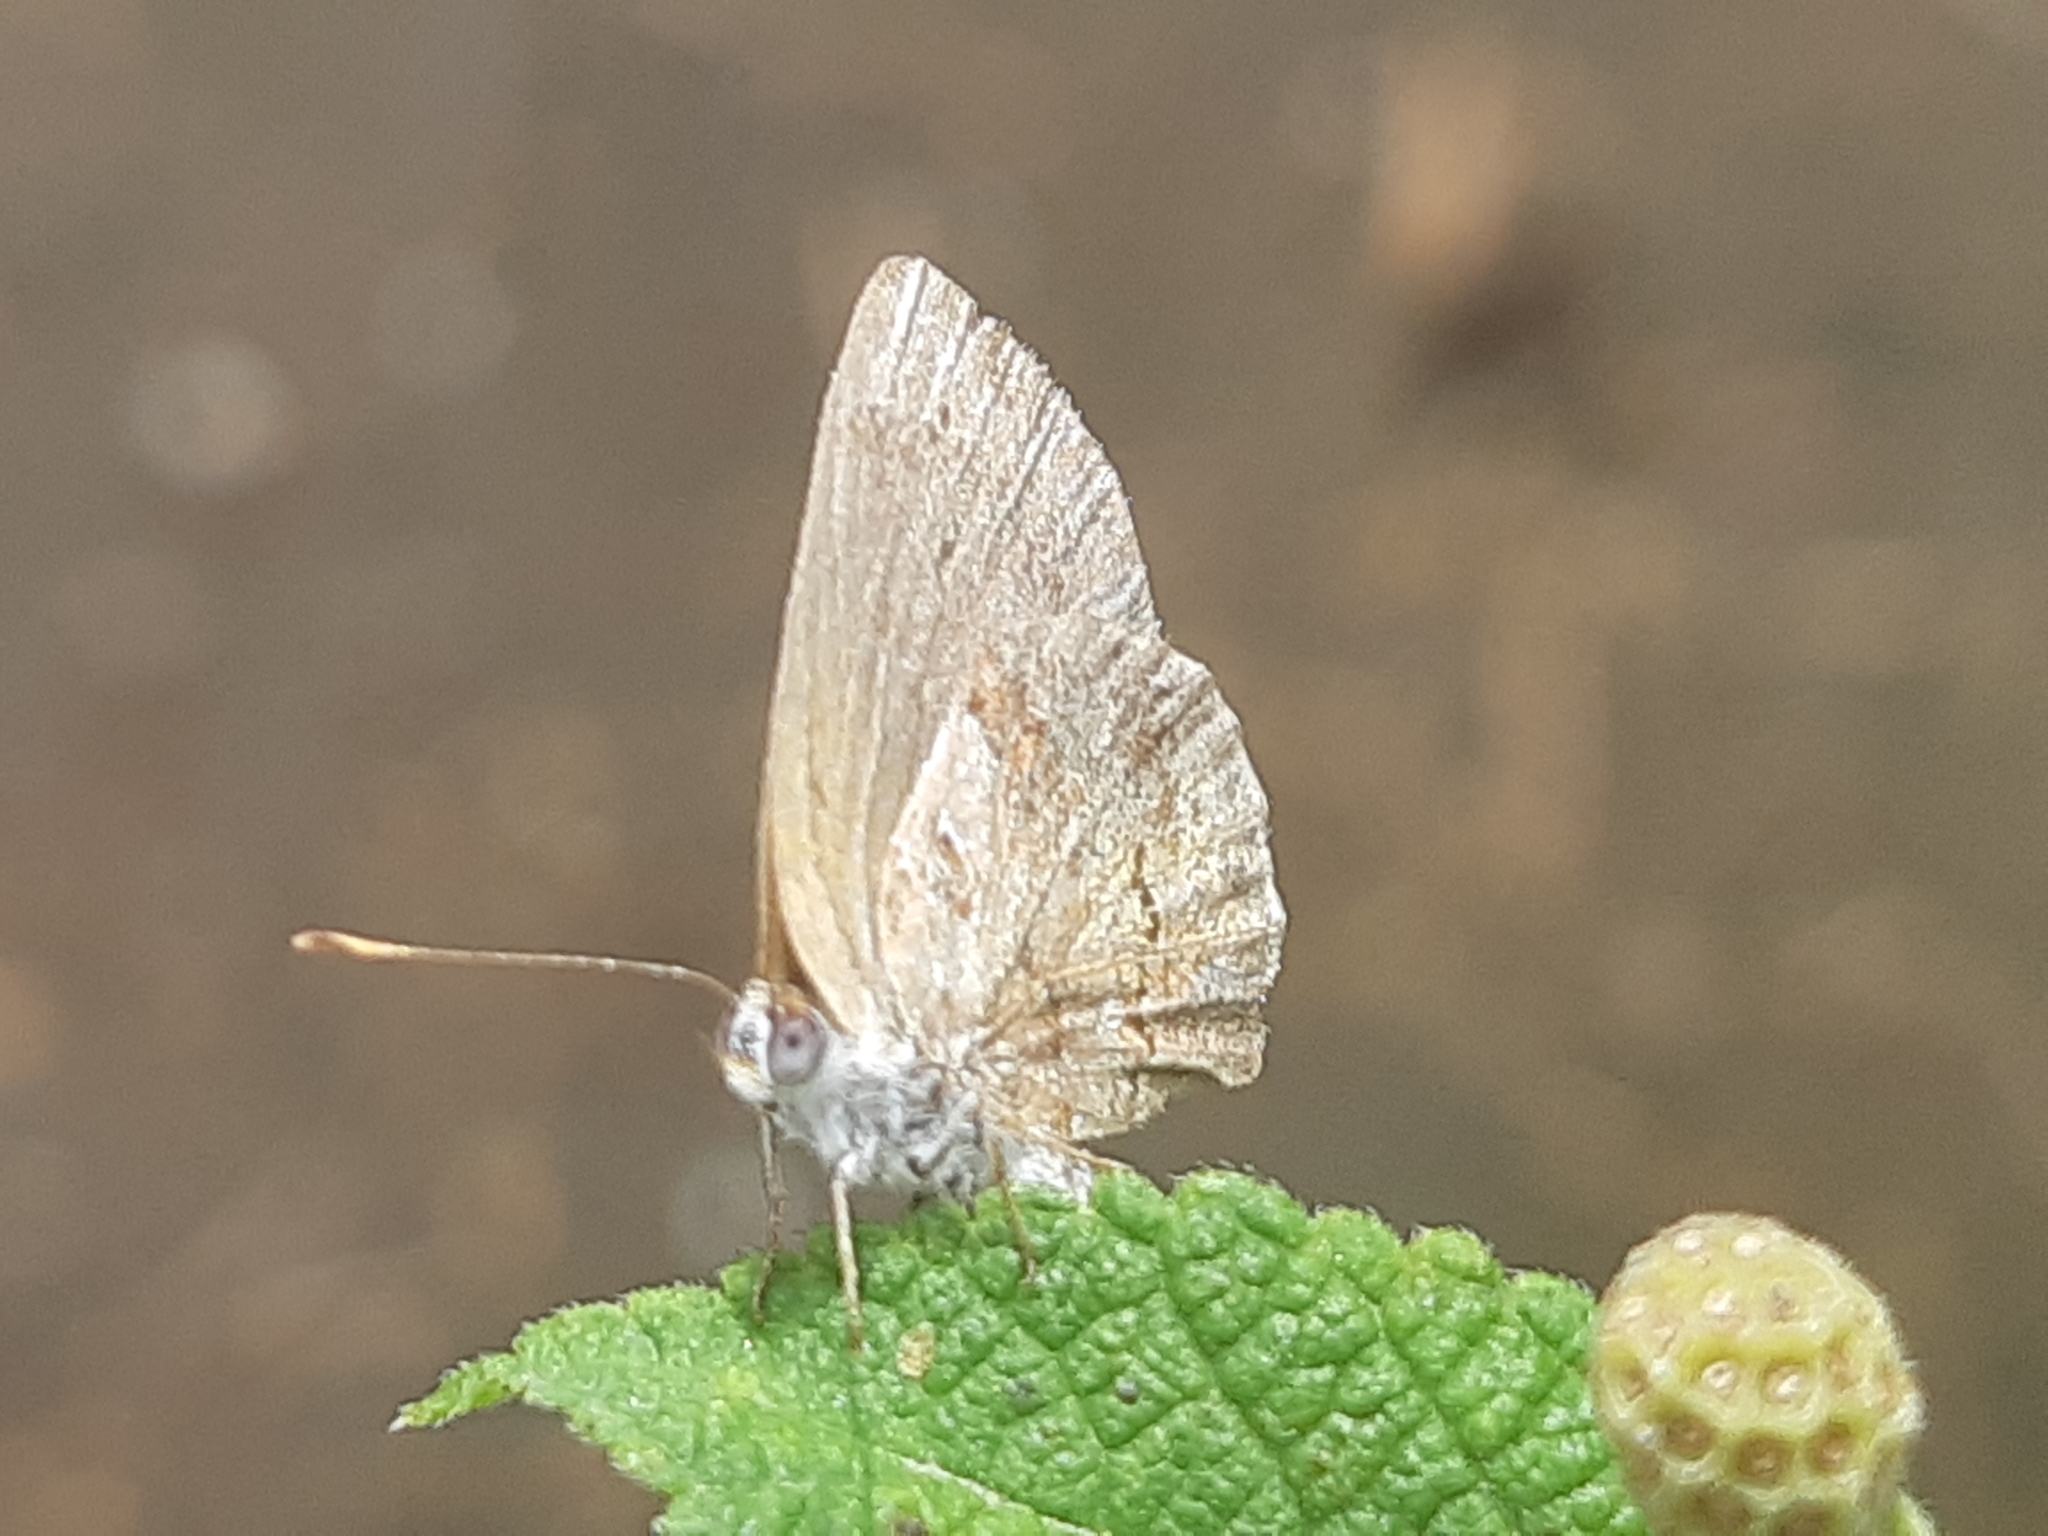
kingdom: Animalia
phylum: Arthropoda
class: Insecta
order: Lepidoptera
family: Lycaenidae
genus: Strymon
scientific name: Strymon bazochii
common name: Lantana scrub-hairstreak
